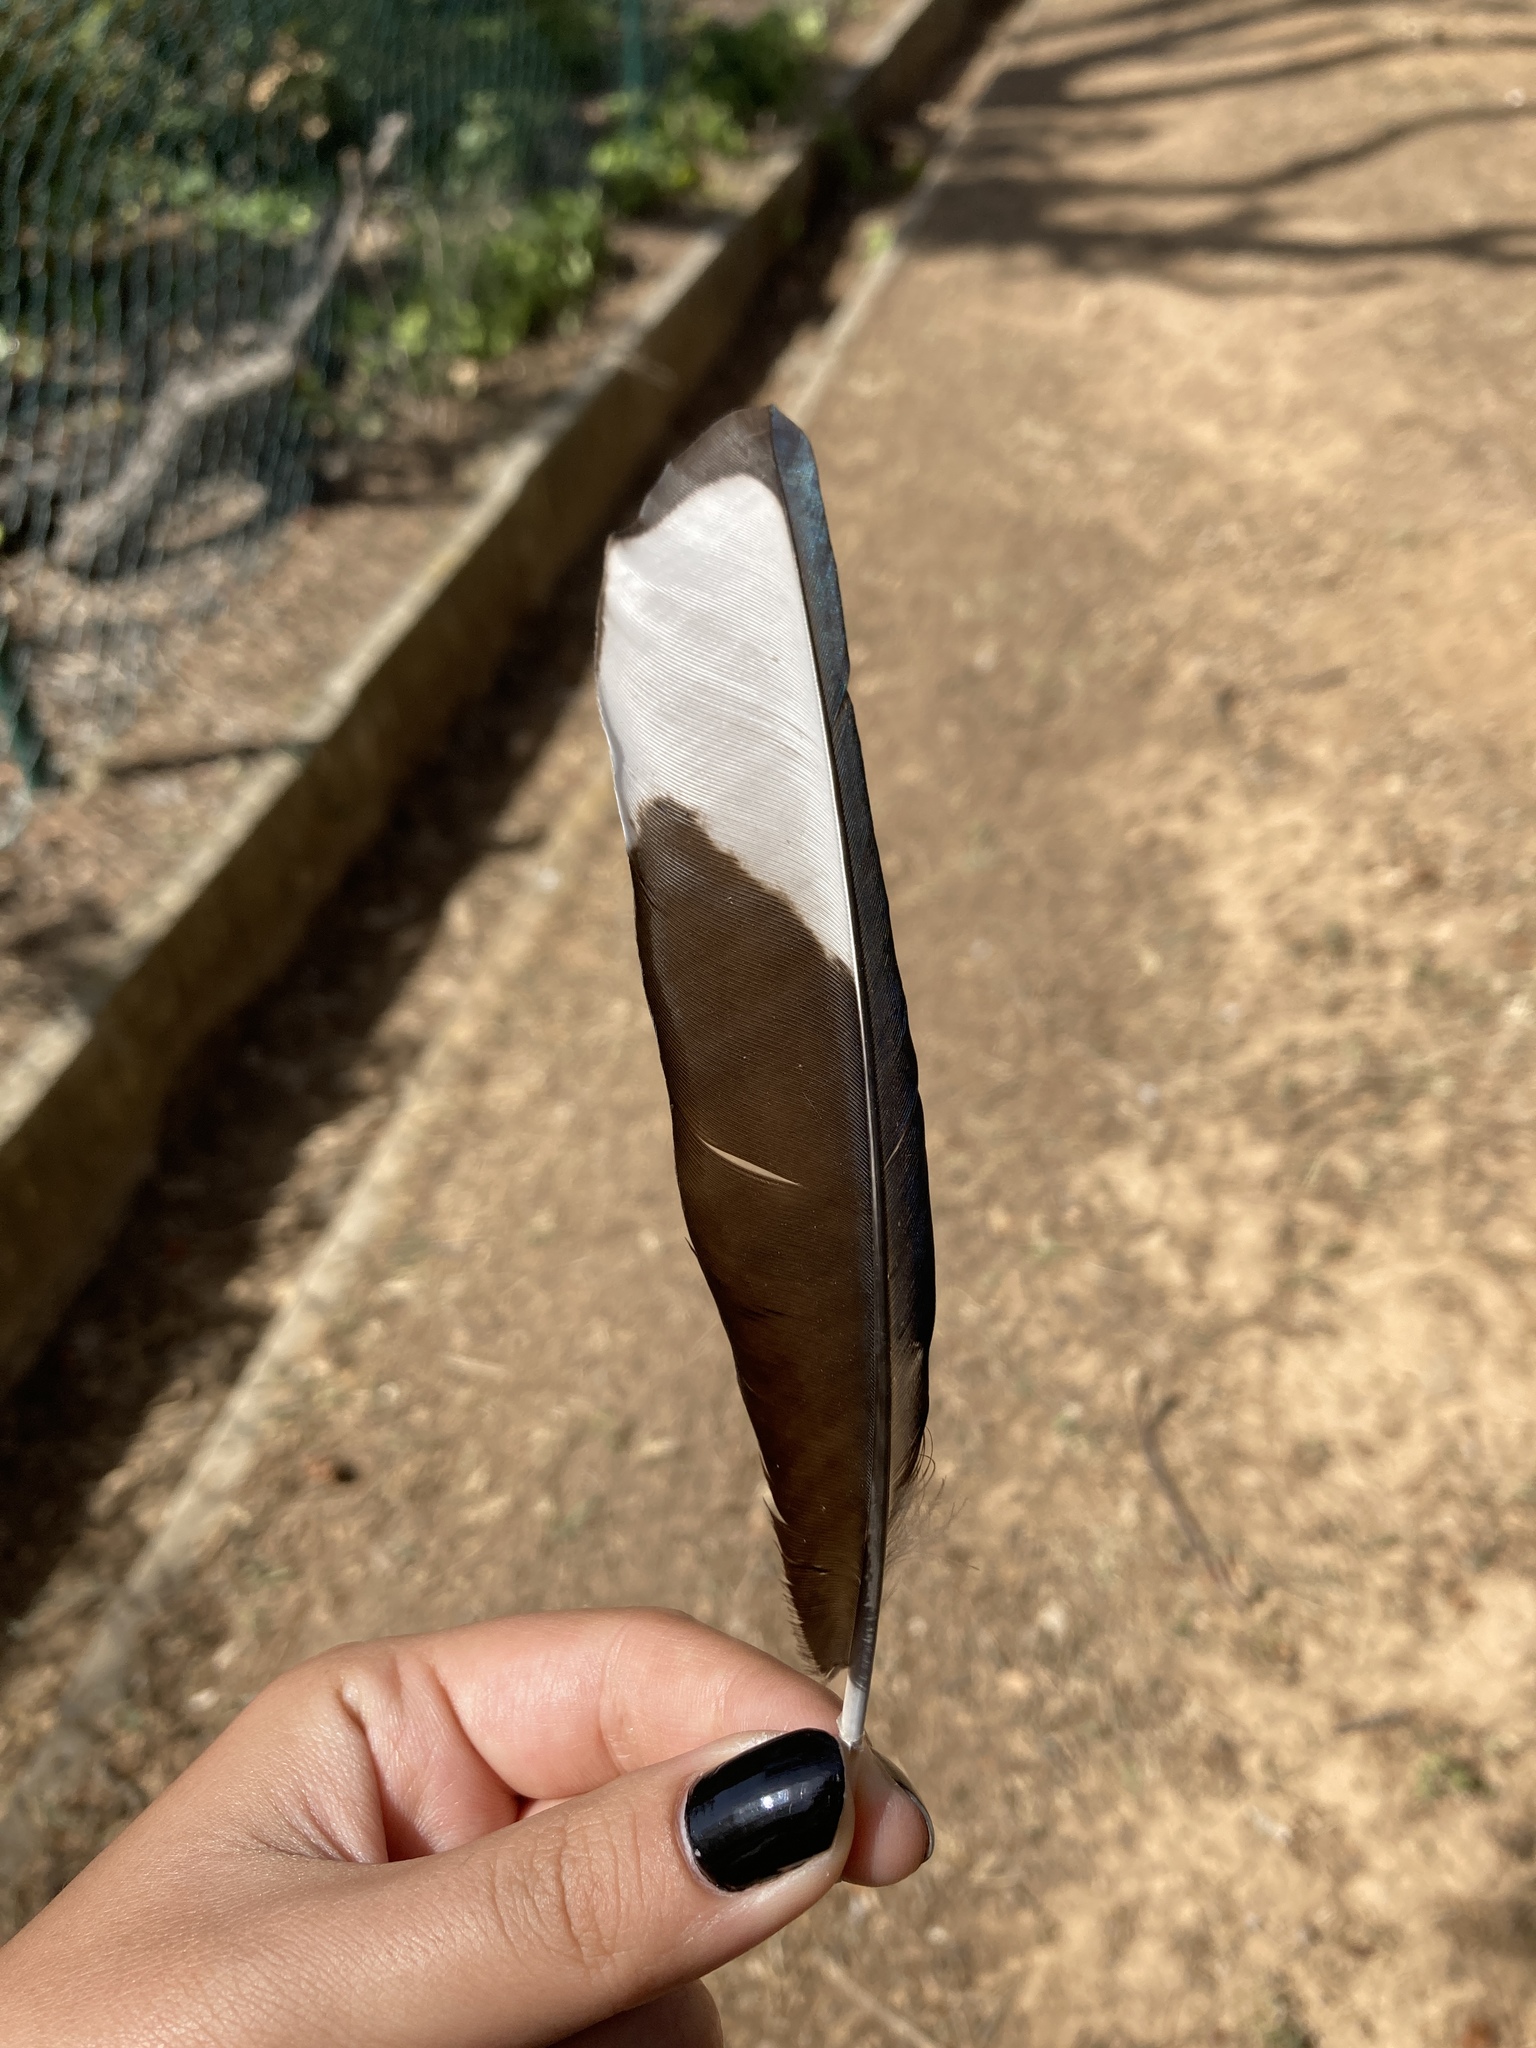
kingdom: Animalia
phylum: Chordata
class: Aves
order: Passeriformes
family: Corvidae
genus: Pica
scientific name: Pica pica
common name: Eurasian magpie
